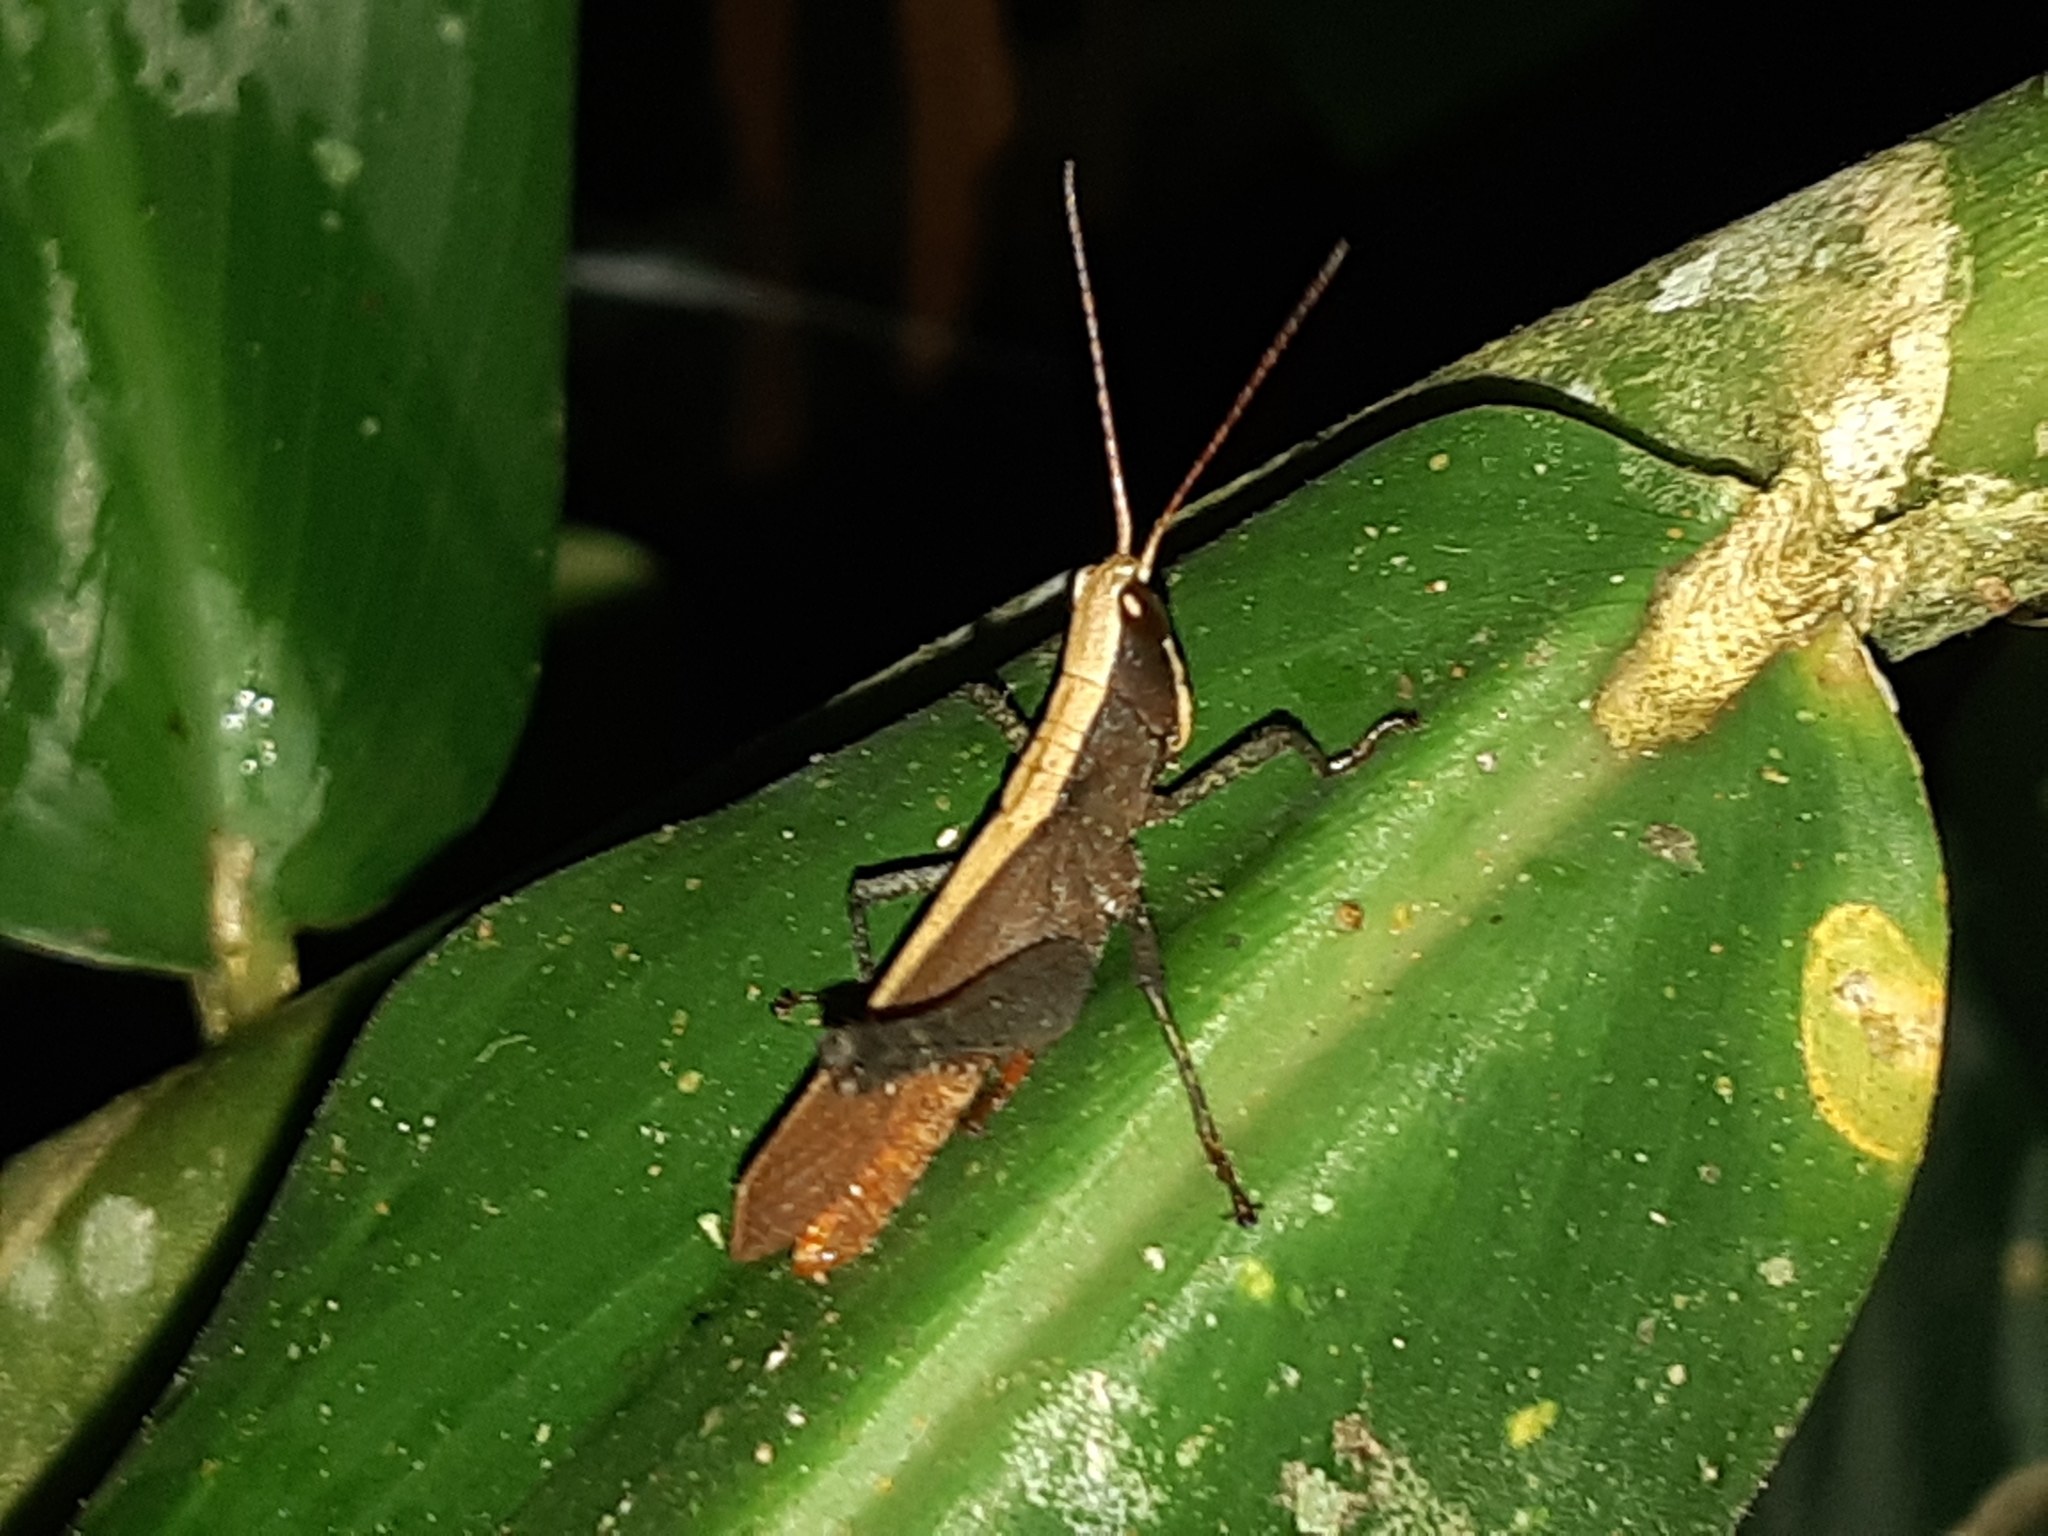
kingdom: Animalia
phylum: Arthropoda
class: Insecta
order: Orthoptera
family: Romaleidae
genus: Maculiparia
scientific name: Maculiparia rotundata
